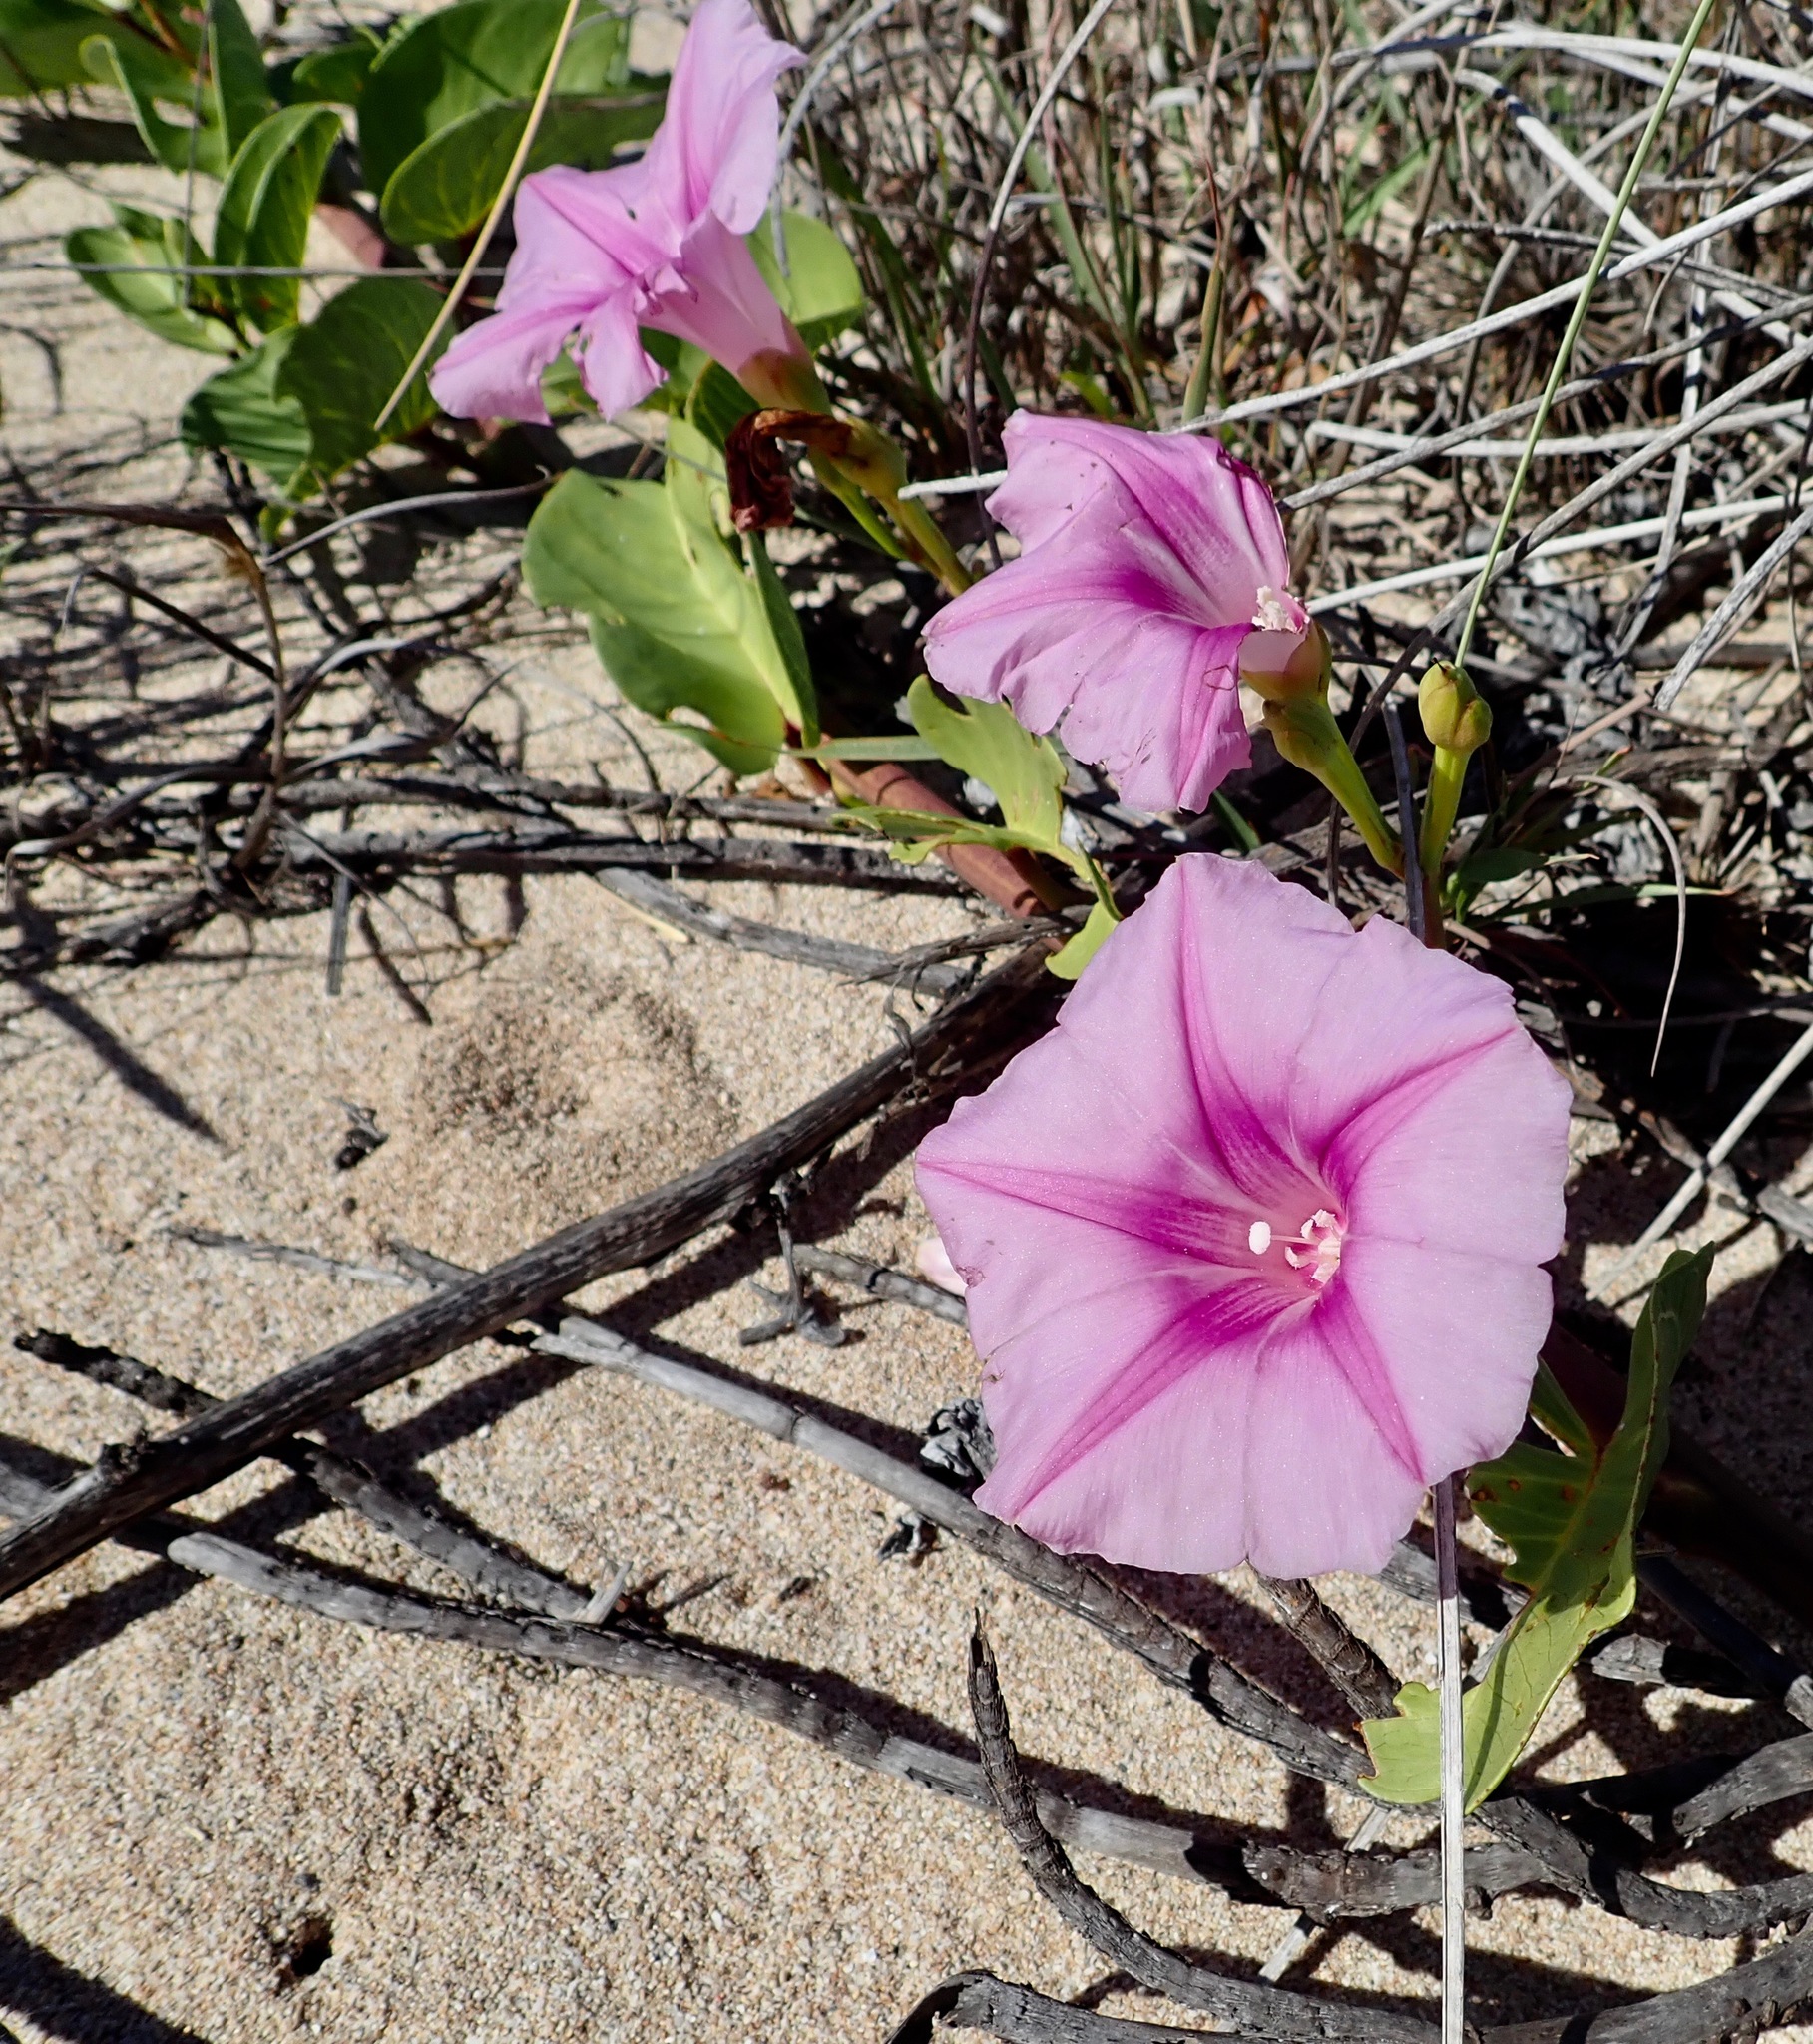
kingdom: Plantae
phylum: Tracheophyta
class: Magnoliopsida
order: Solanales
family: Convolvulaceae
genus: Ipomoea
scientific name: Ipomoea pes-caprae
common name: Beach morning glory
